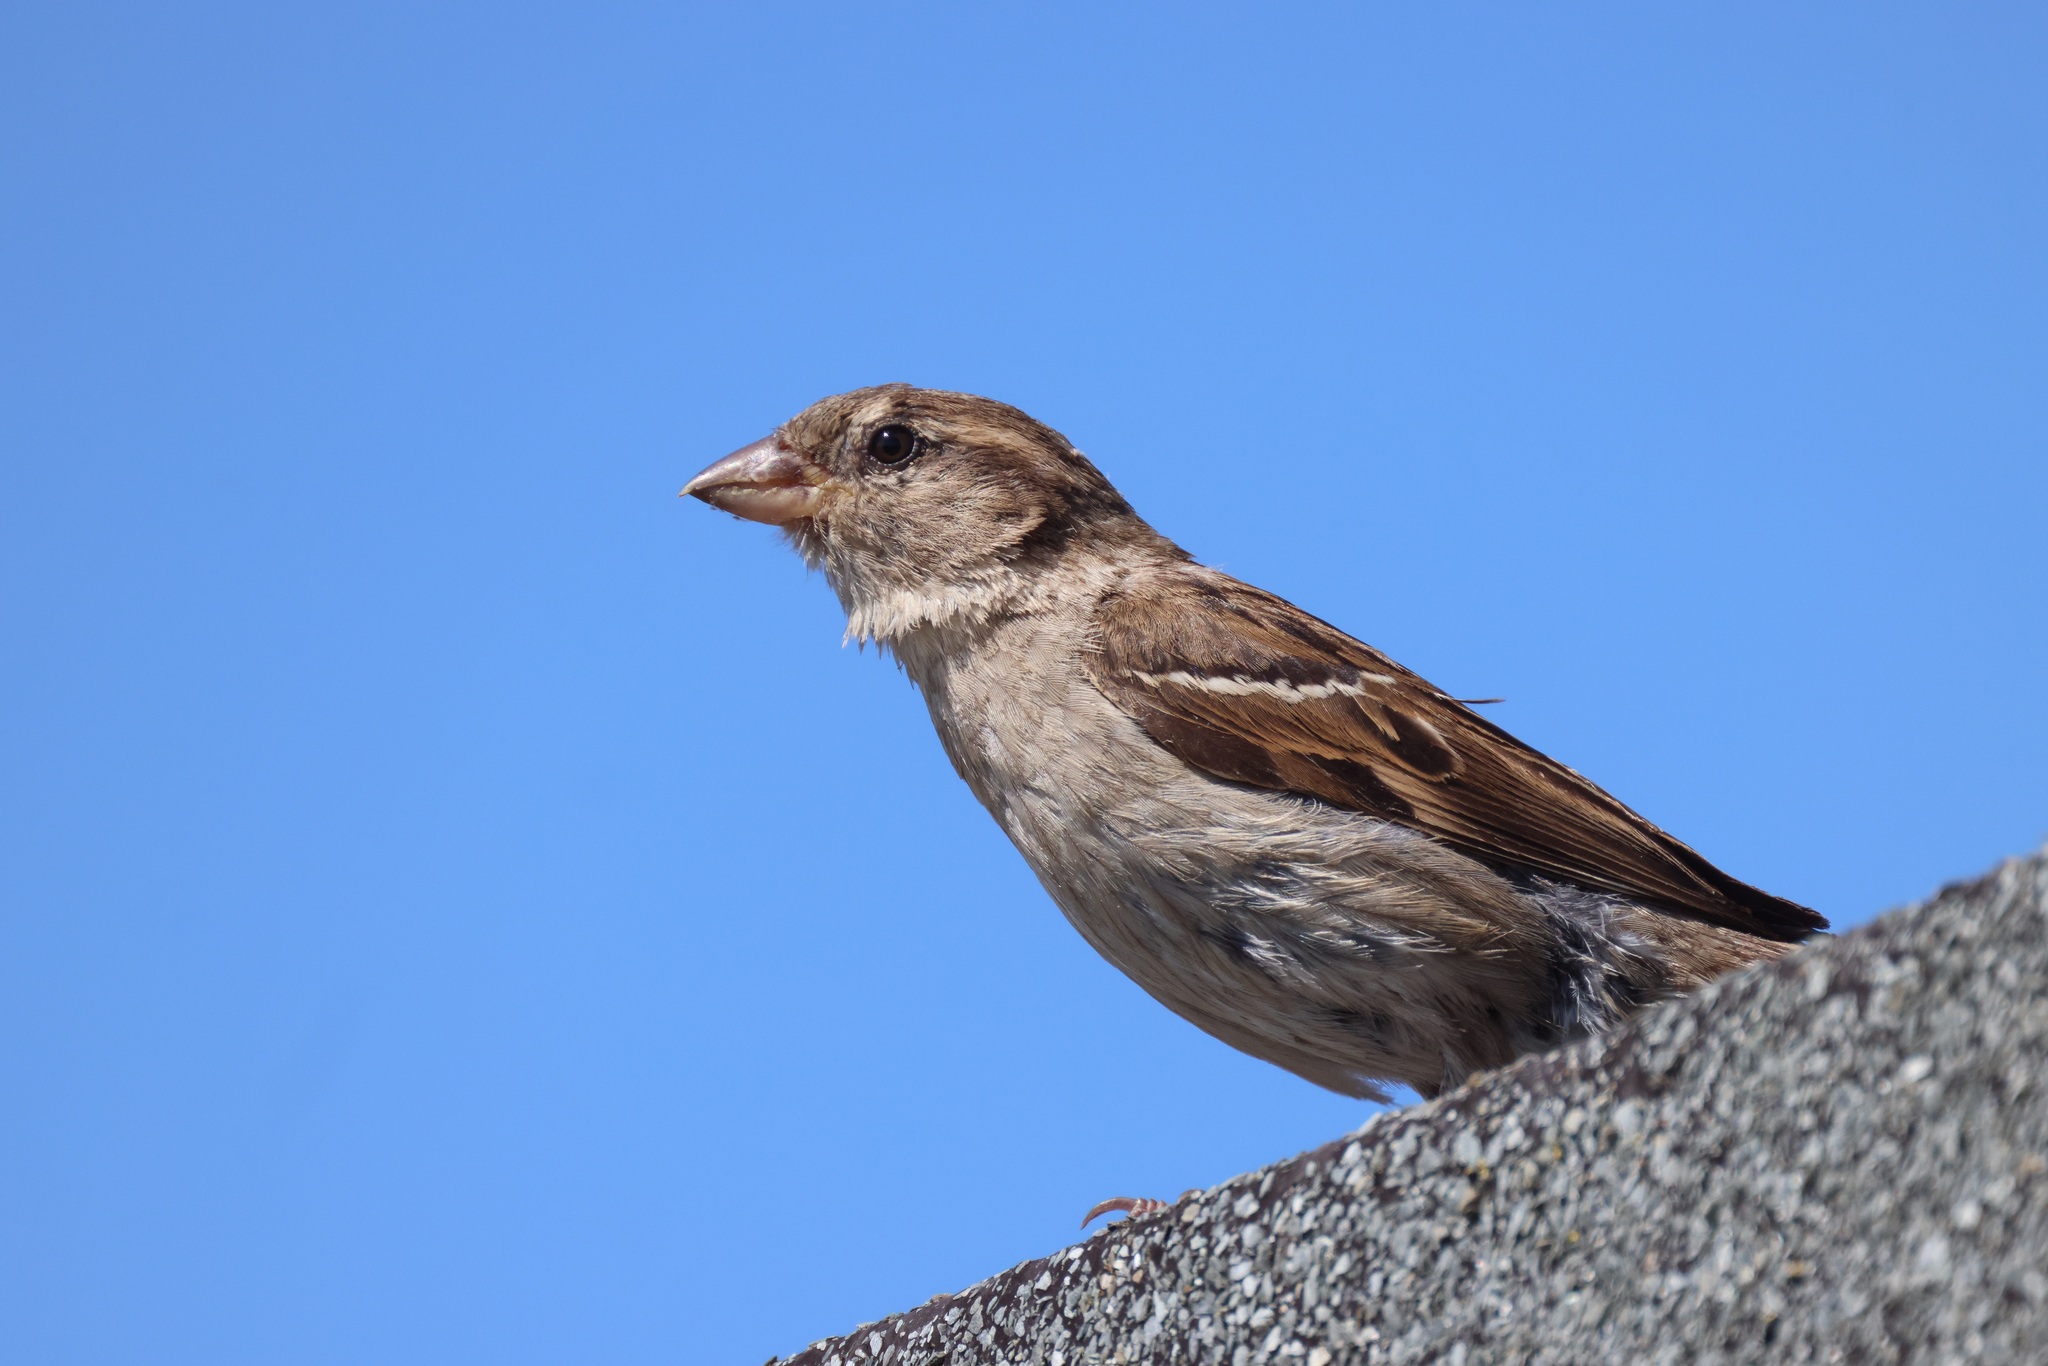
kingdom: Animalia
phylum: Chordata
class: Aves
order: Passeriformes
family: Passeridae
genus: Passer
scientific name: Passer domesticus
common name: House sparrow
